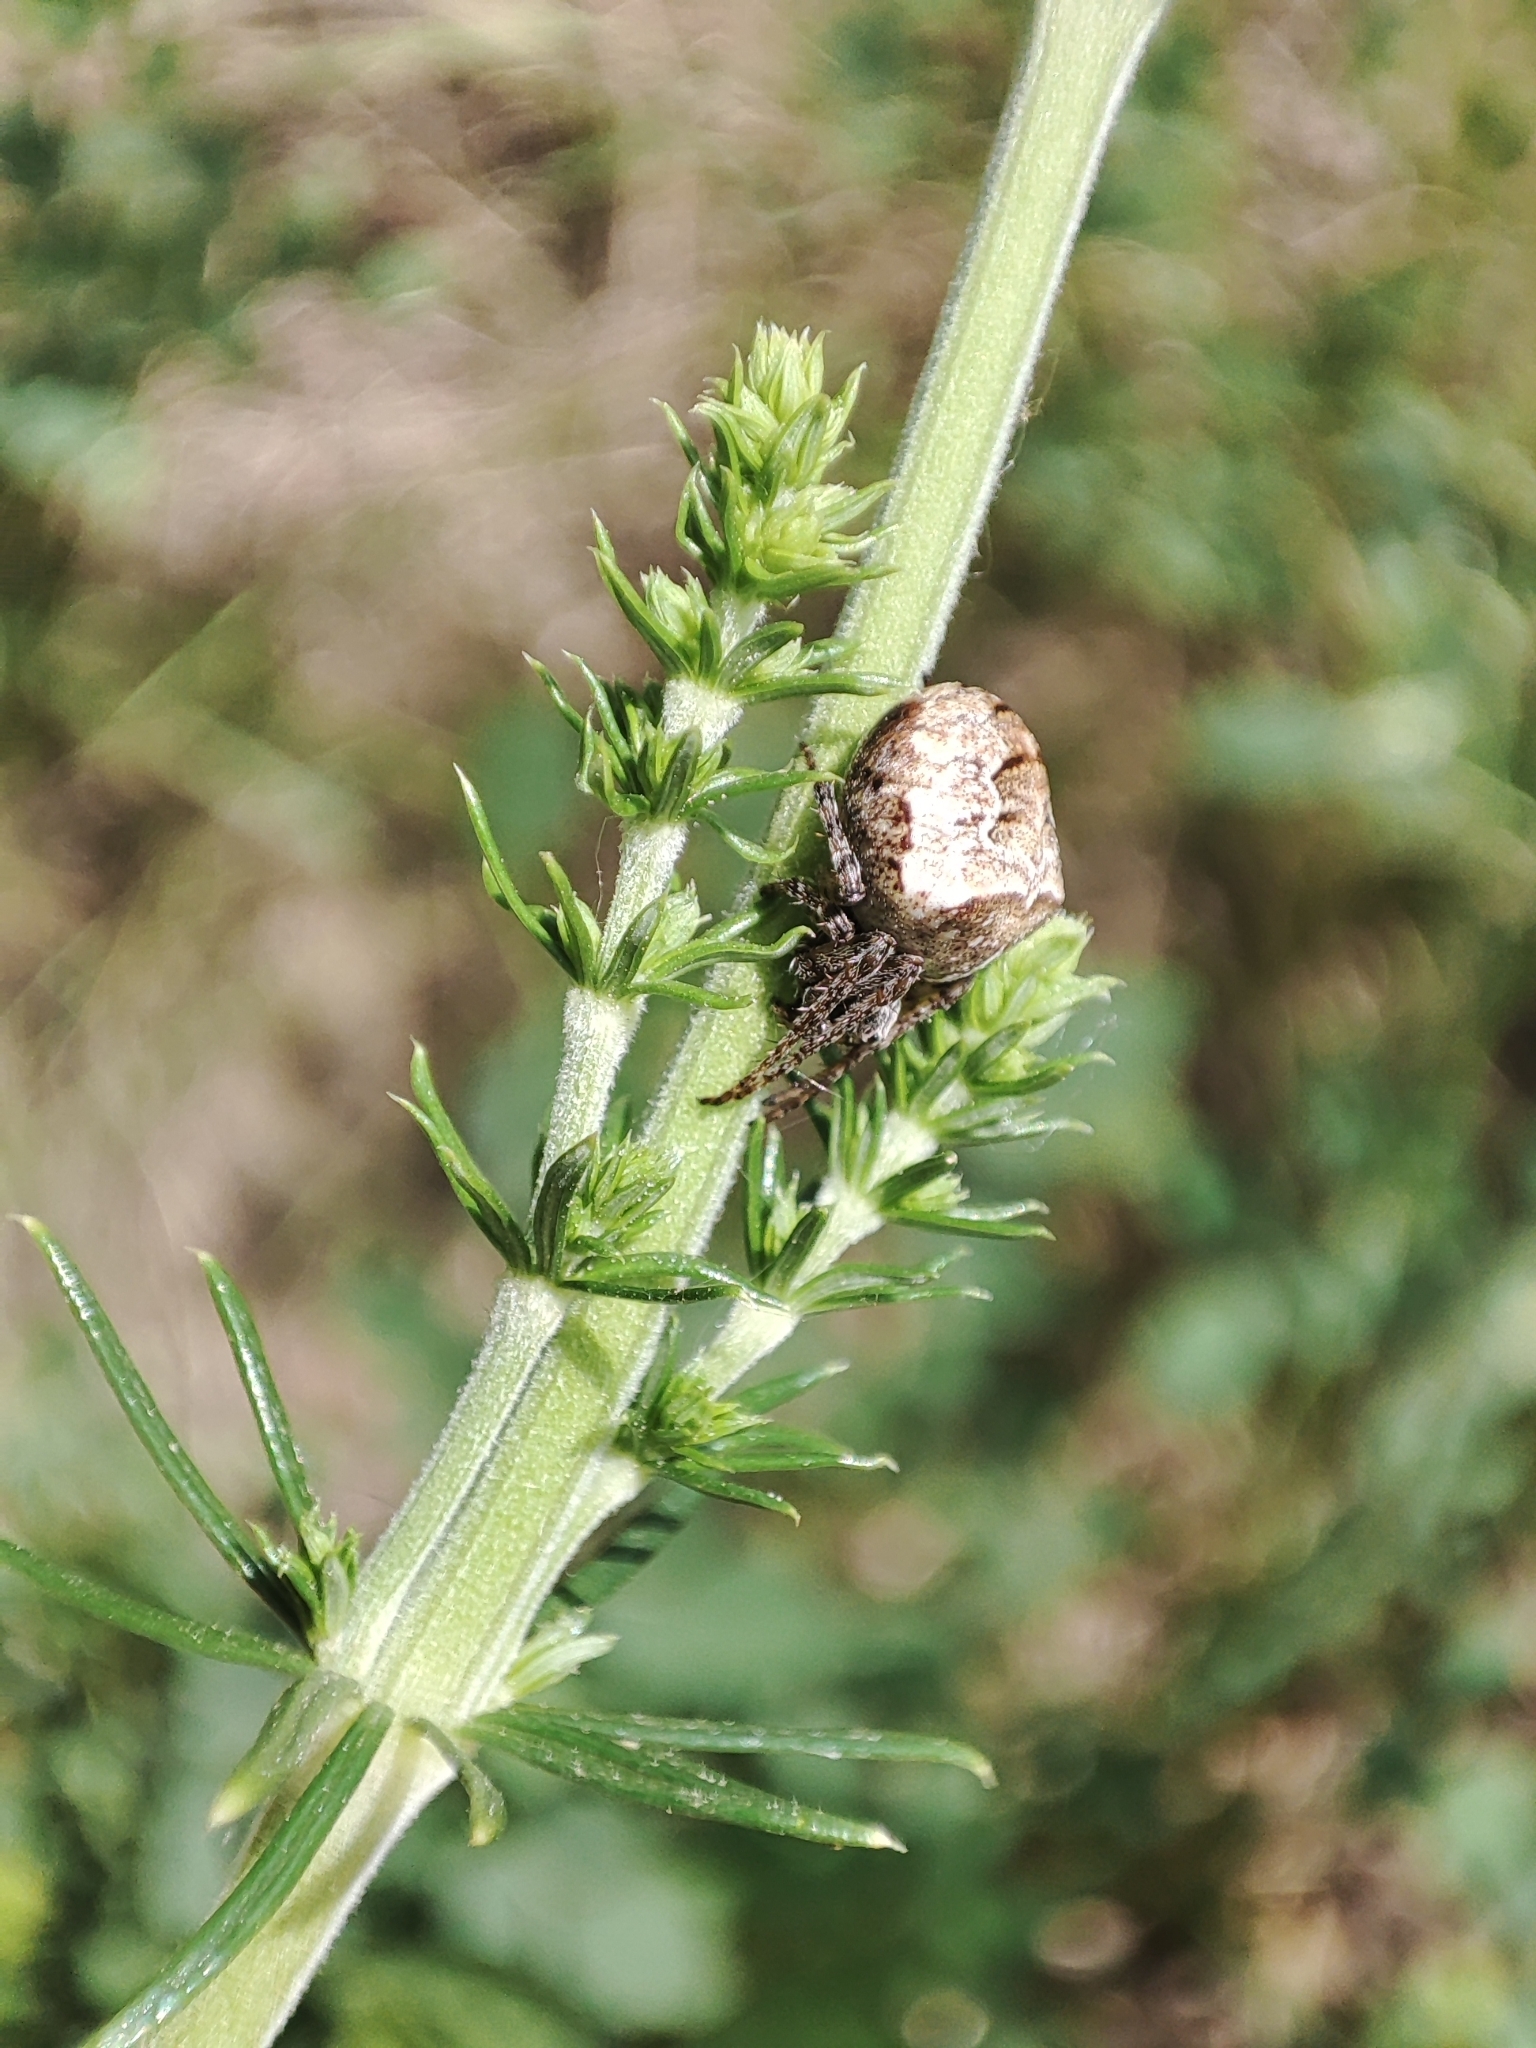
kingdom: Animalia
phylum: Arthropoda
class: Arachnida
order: Araneae
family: Araneidae
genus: Gibbaranea
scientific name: Gibbaranea bituberculata
